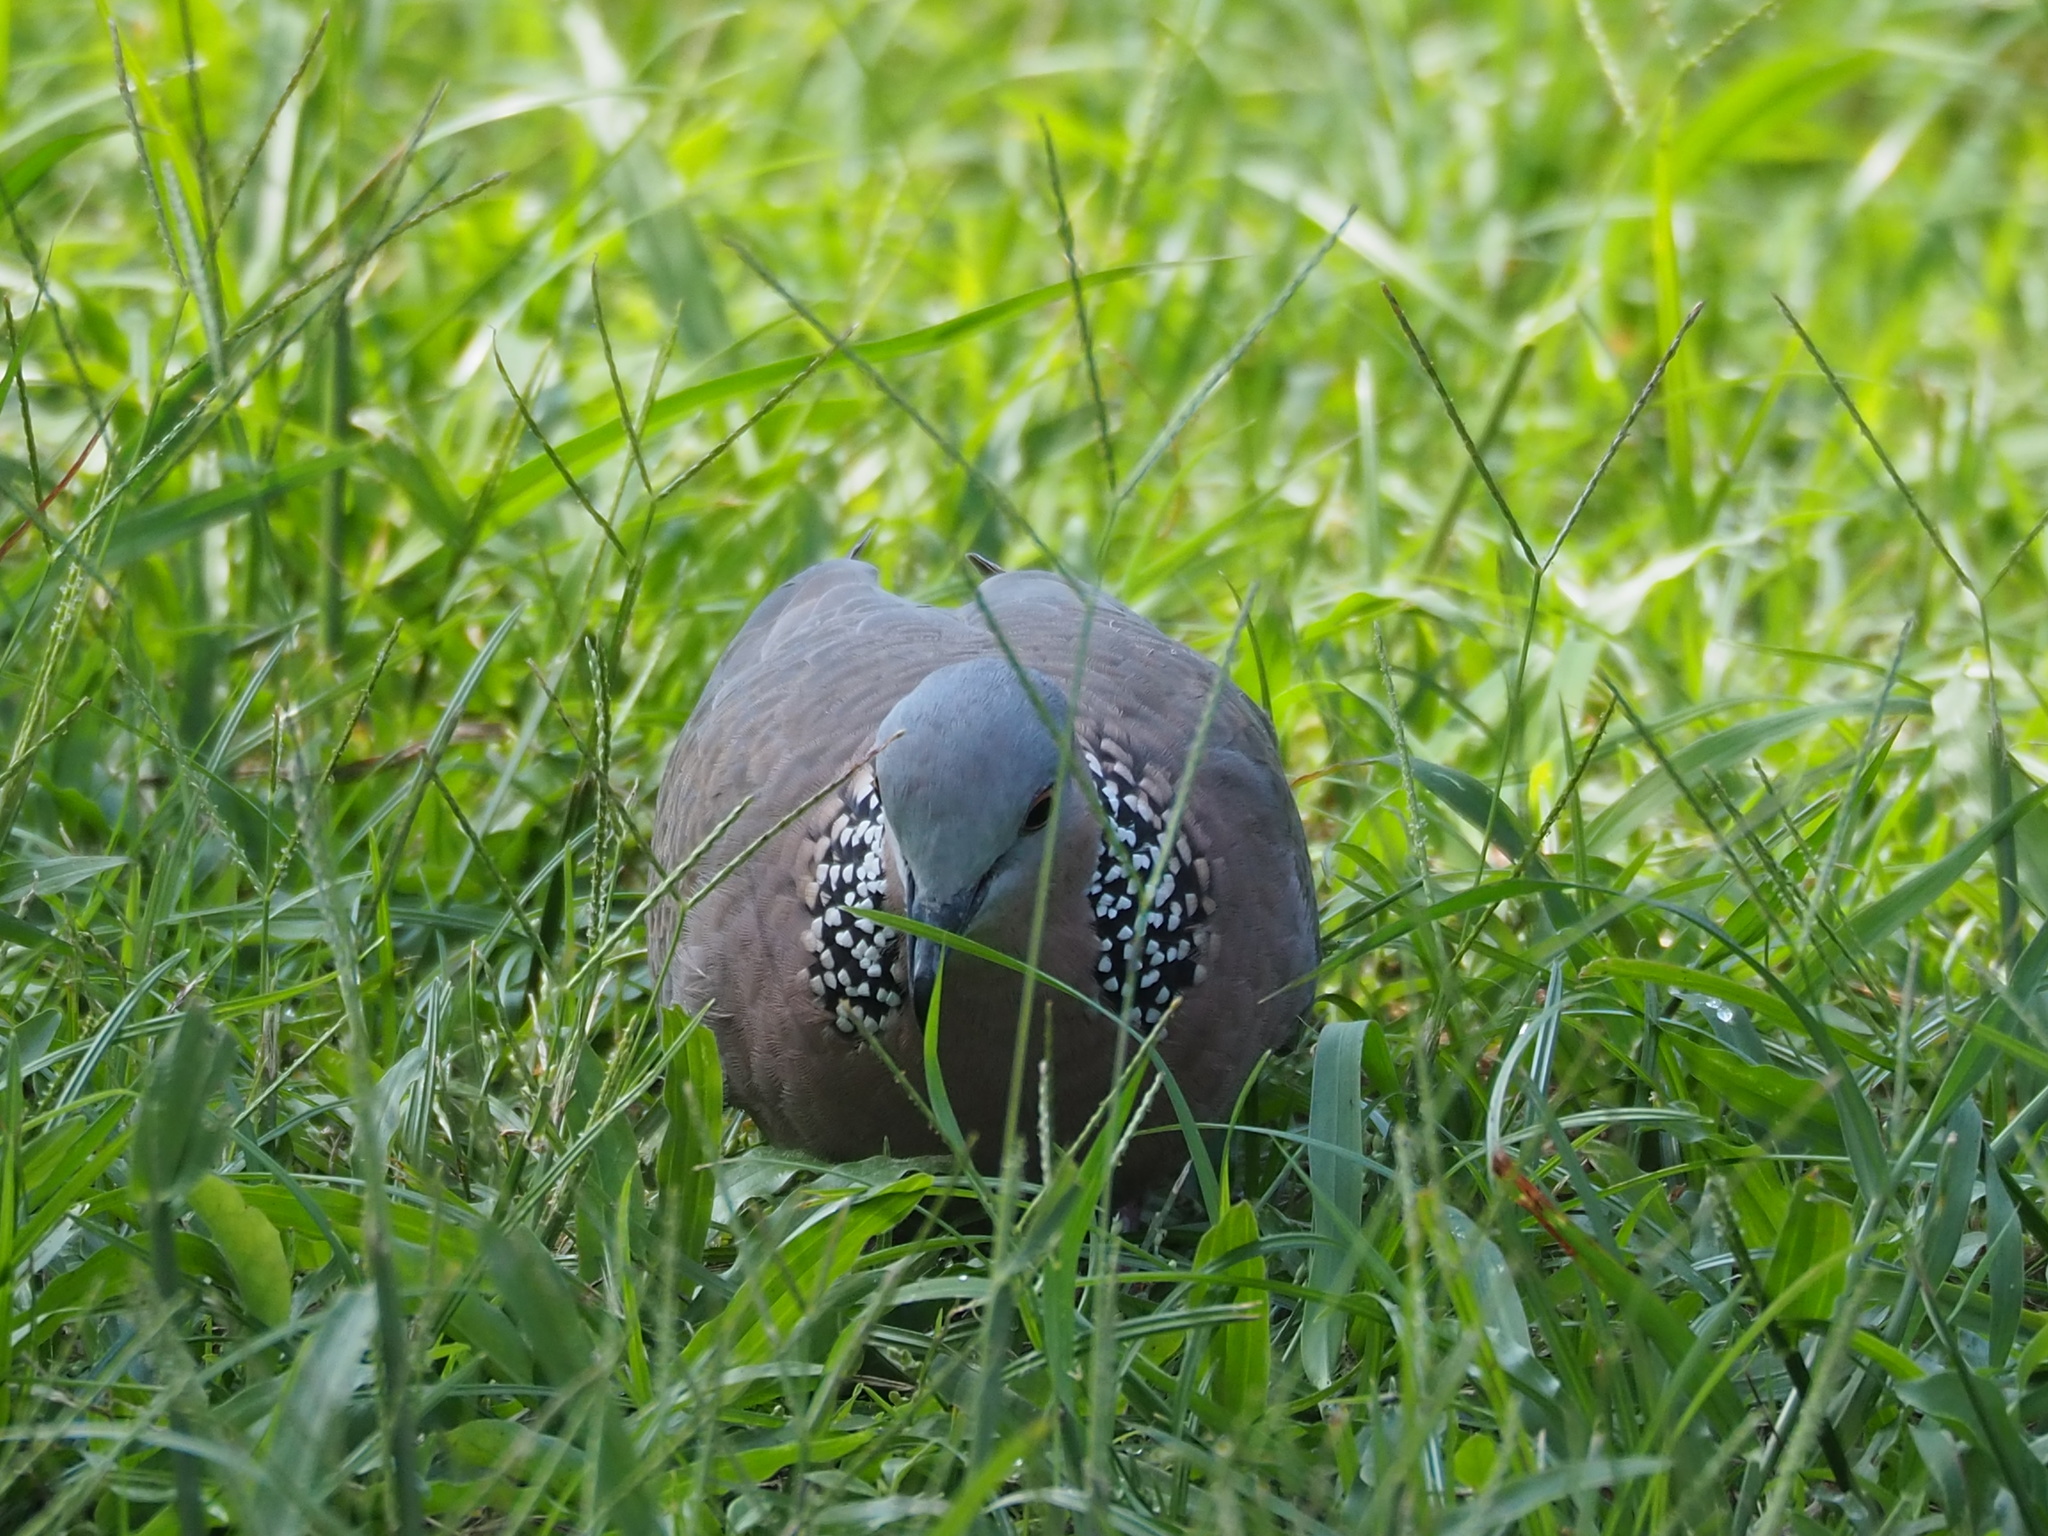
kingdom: Animalia
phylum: Chordata
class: Aves
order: Columbiformes
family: Columbidae
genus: Spilopelia
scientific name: Spilopelia chinensis
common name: Spotted dove
